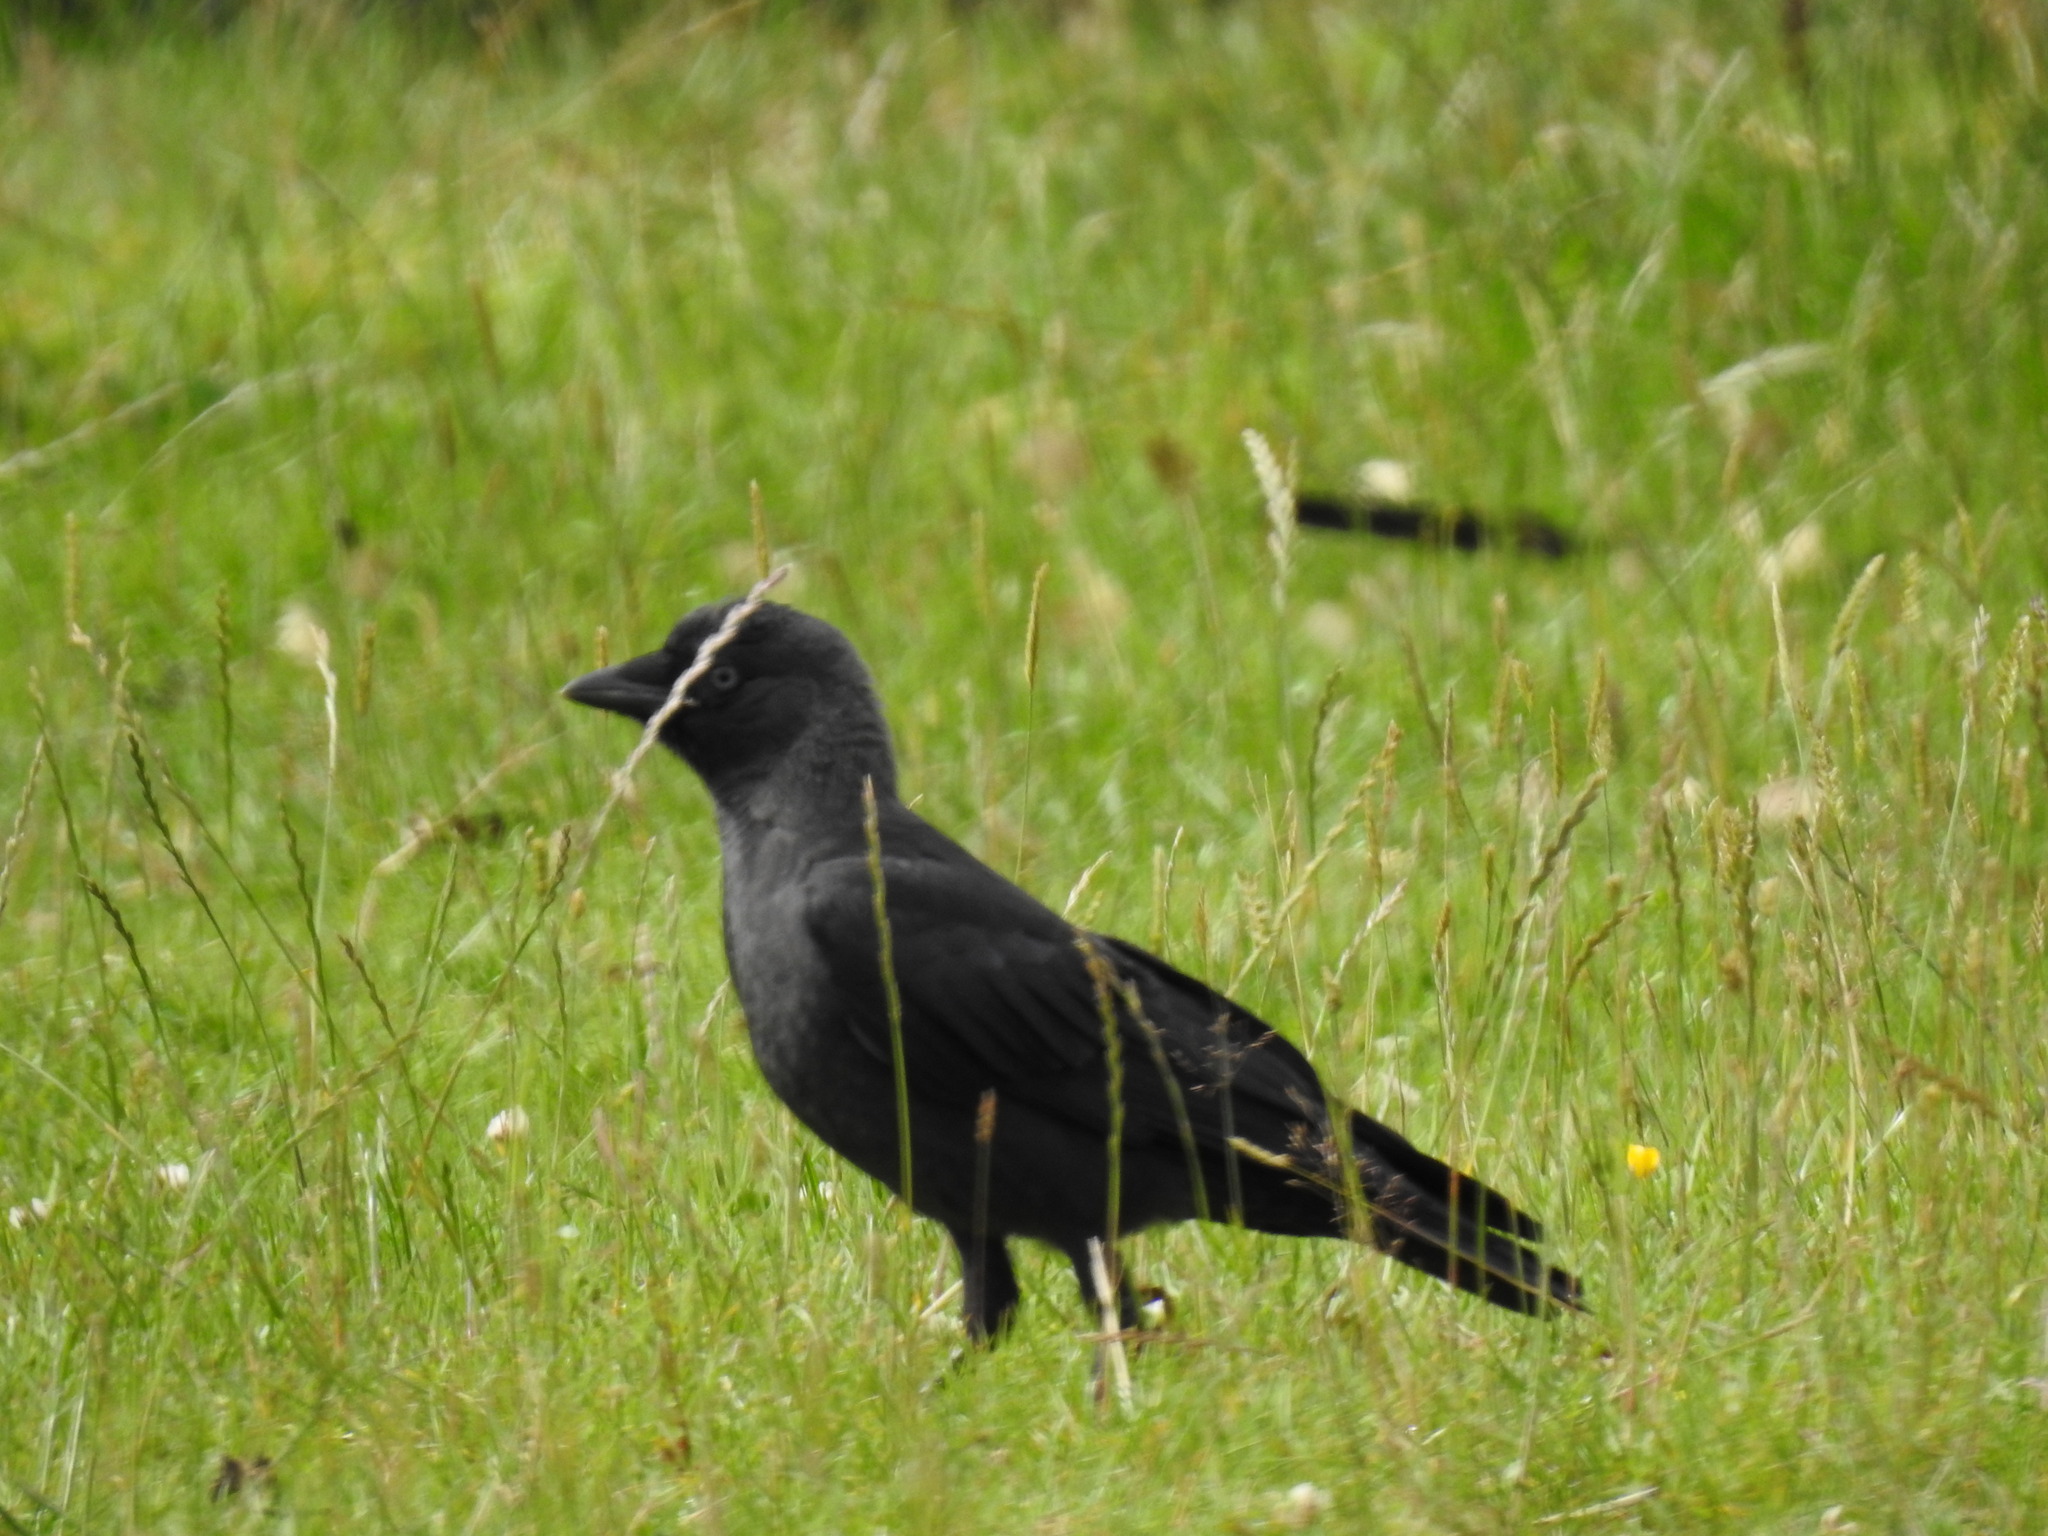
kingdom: Animalia
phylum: Chordata
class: Aves
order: Passeriformes
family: Corvidae
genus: Coloeus
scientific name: Coloeus monedula
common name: Western jackdaw
